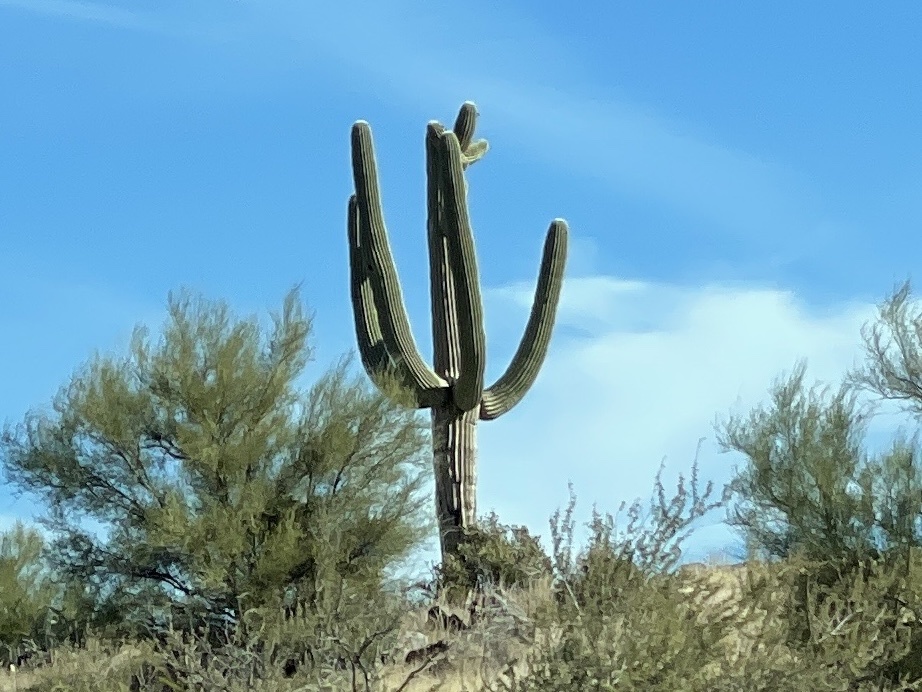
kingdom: Plantae
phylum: Tracheophyta
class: Magnoliopsida
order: Caryophyllales
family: Cactaceae
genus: Carnegiea
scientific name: Carnegiea gigantea
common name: Saguaro
